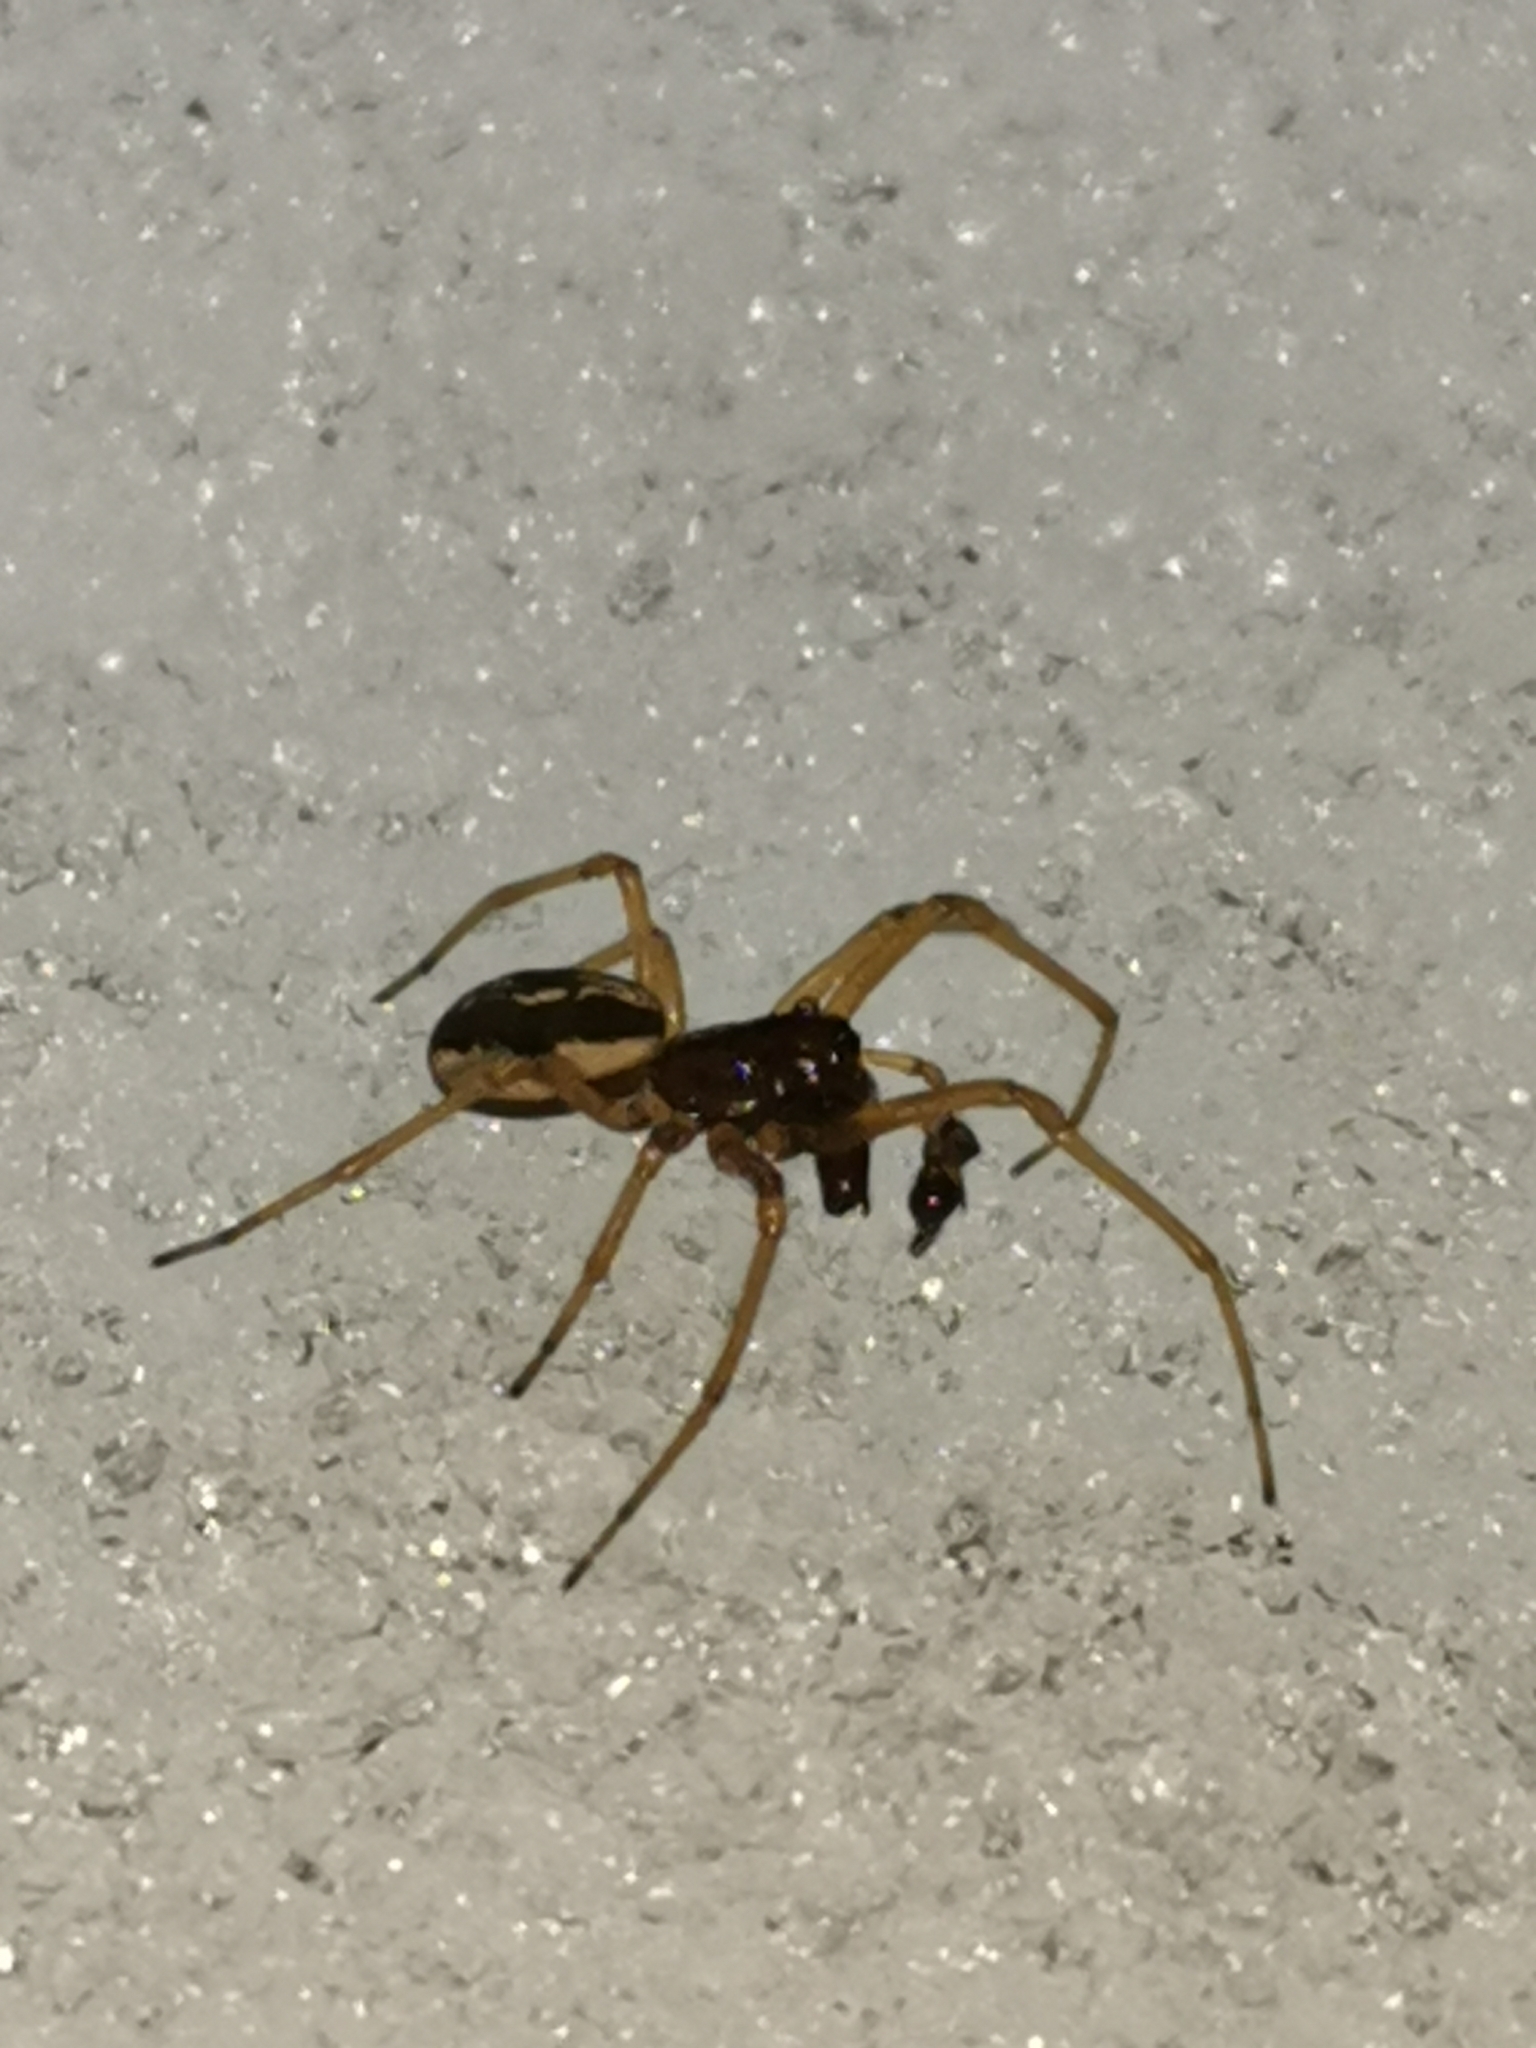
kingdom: Animalia
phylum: Arthropoda
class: Arachnida
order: Araneae
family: Tetragnathidae
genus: Pachygnatha
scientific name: Pachygnatha degeeri
